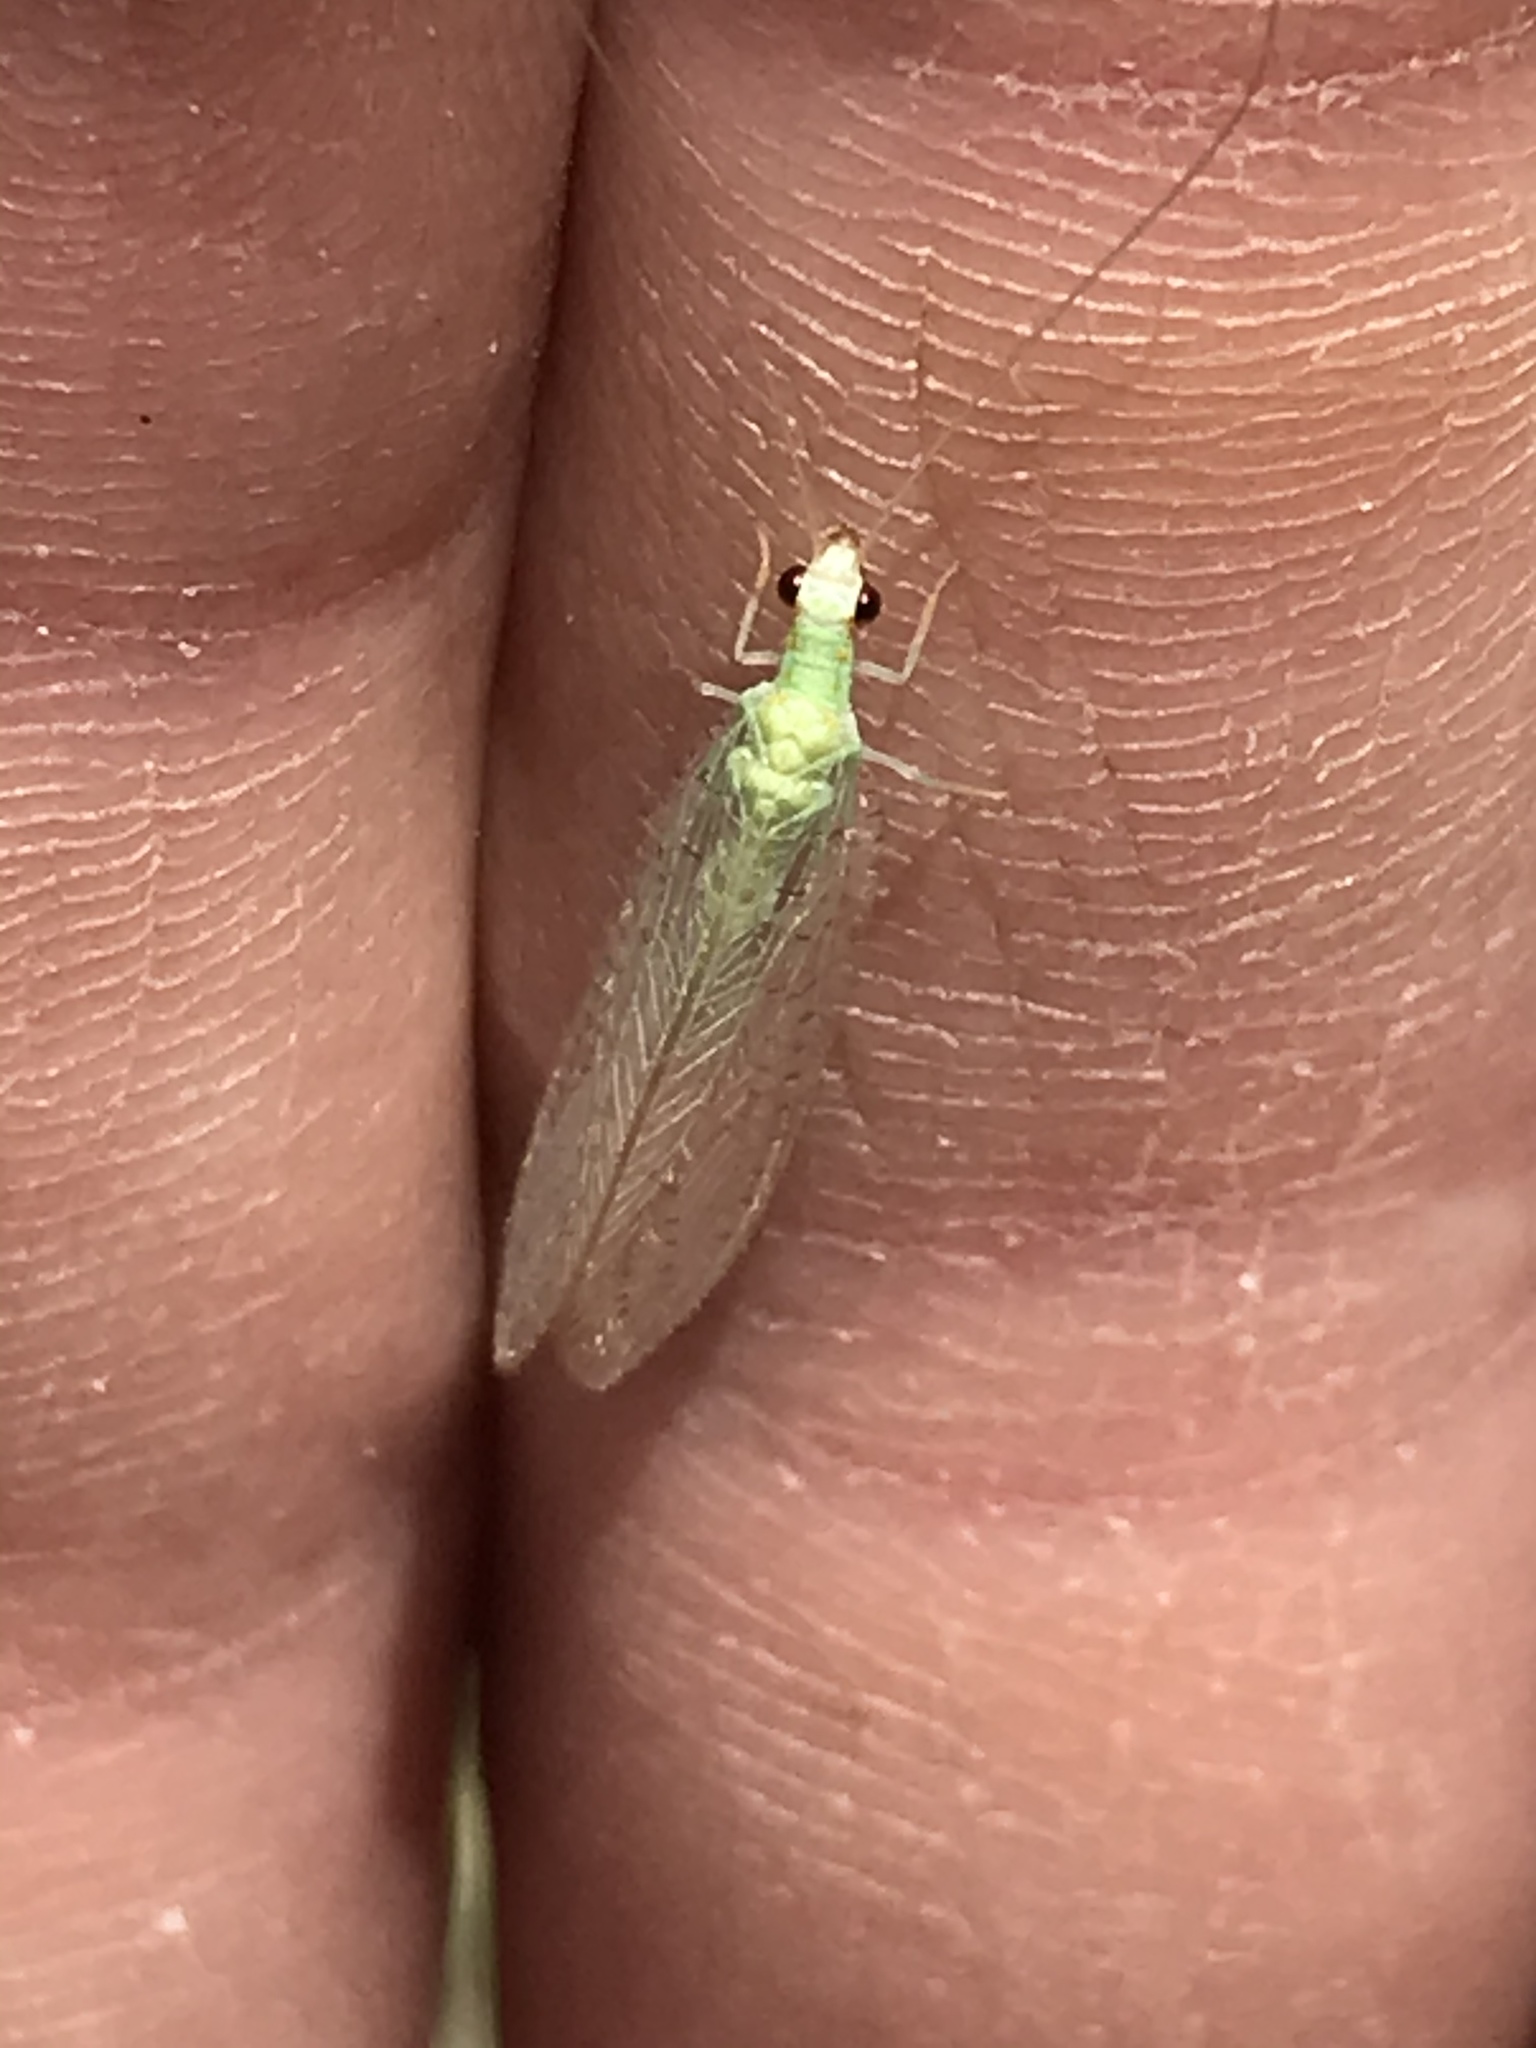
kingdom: Animalia
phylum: Arthropoda
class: Insecta
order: Neuroptera
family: Chrysopidae
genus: Chrysopa
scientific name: Chrysopa quadripunctata
